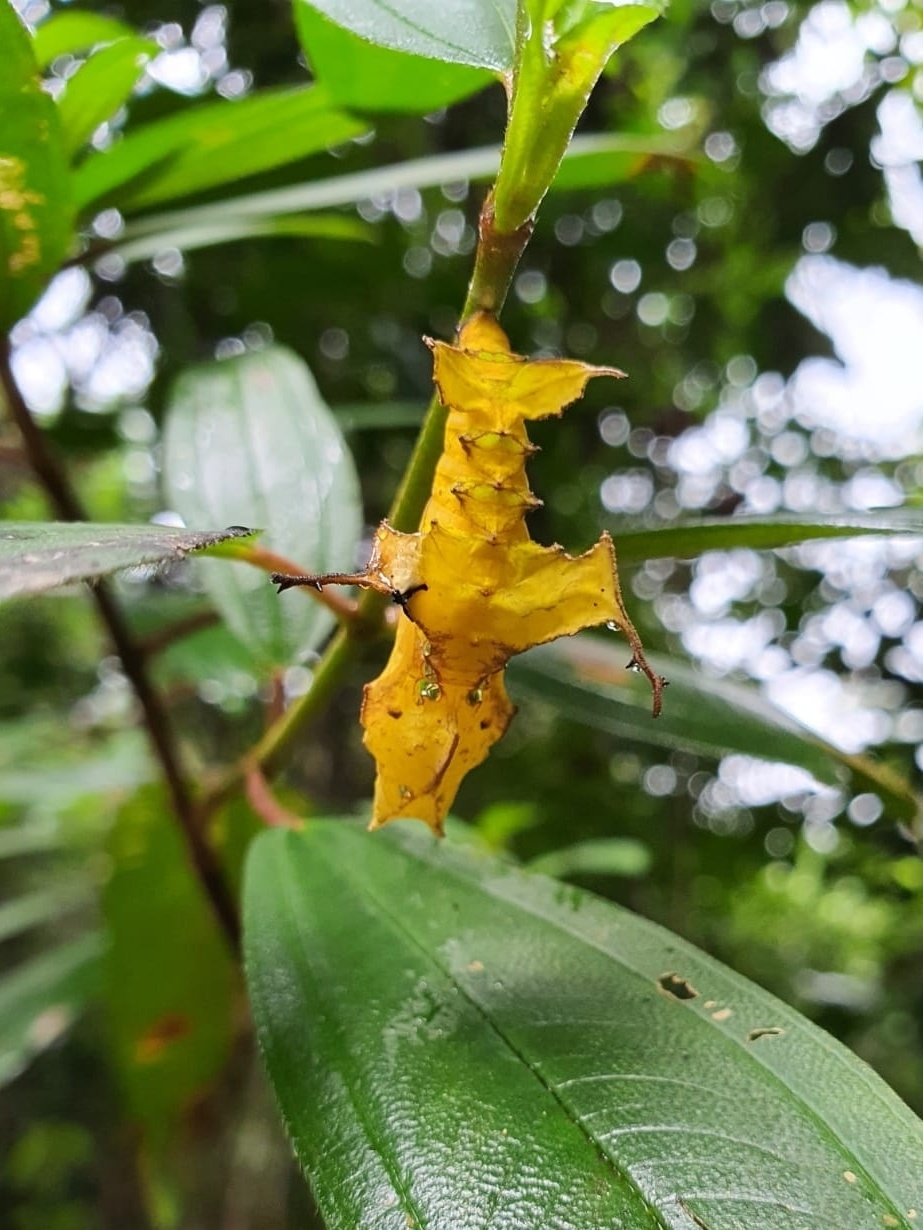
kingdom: Animalia
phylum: Arthropoda
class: Insecta
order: Lepidoptera
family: Nymphalidae
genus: Vindula
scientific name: Vindula deione
